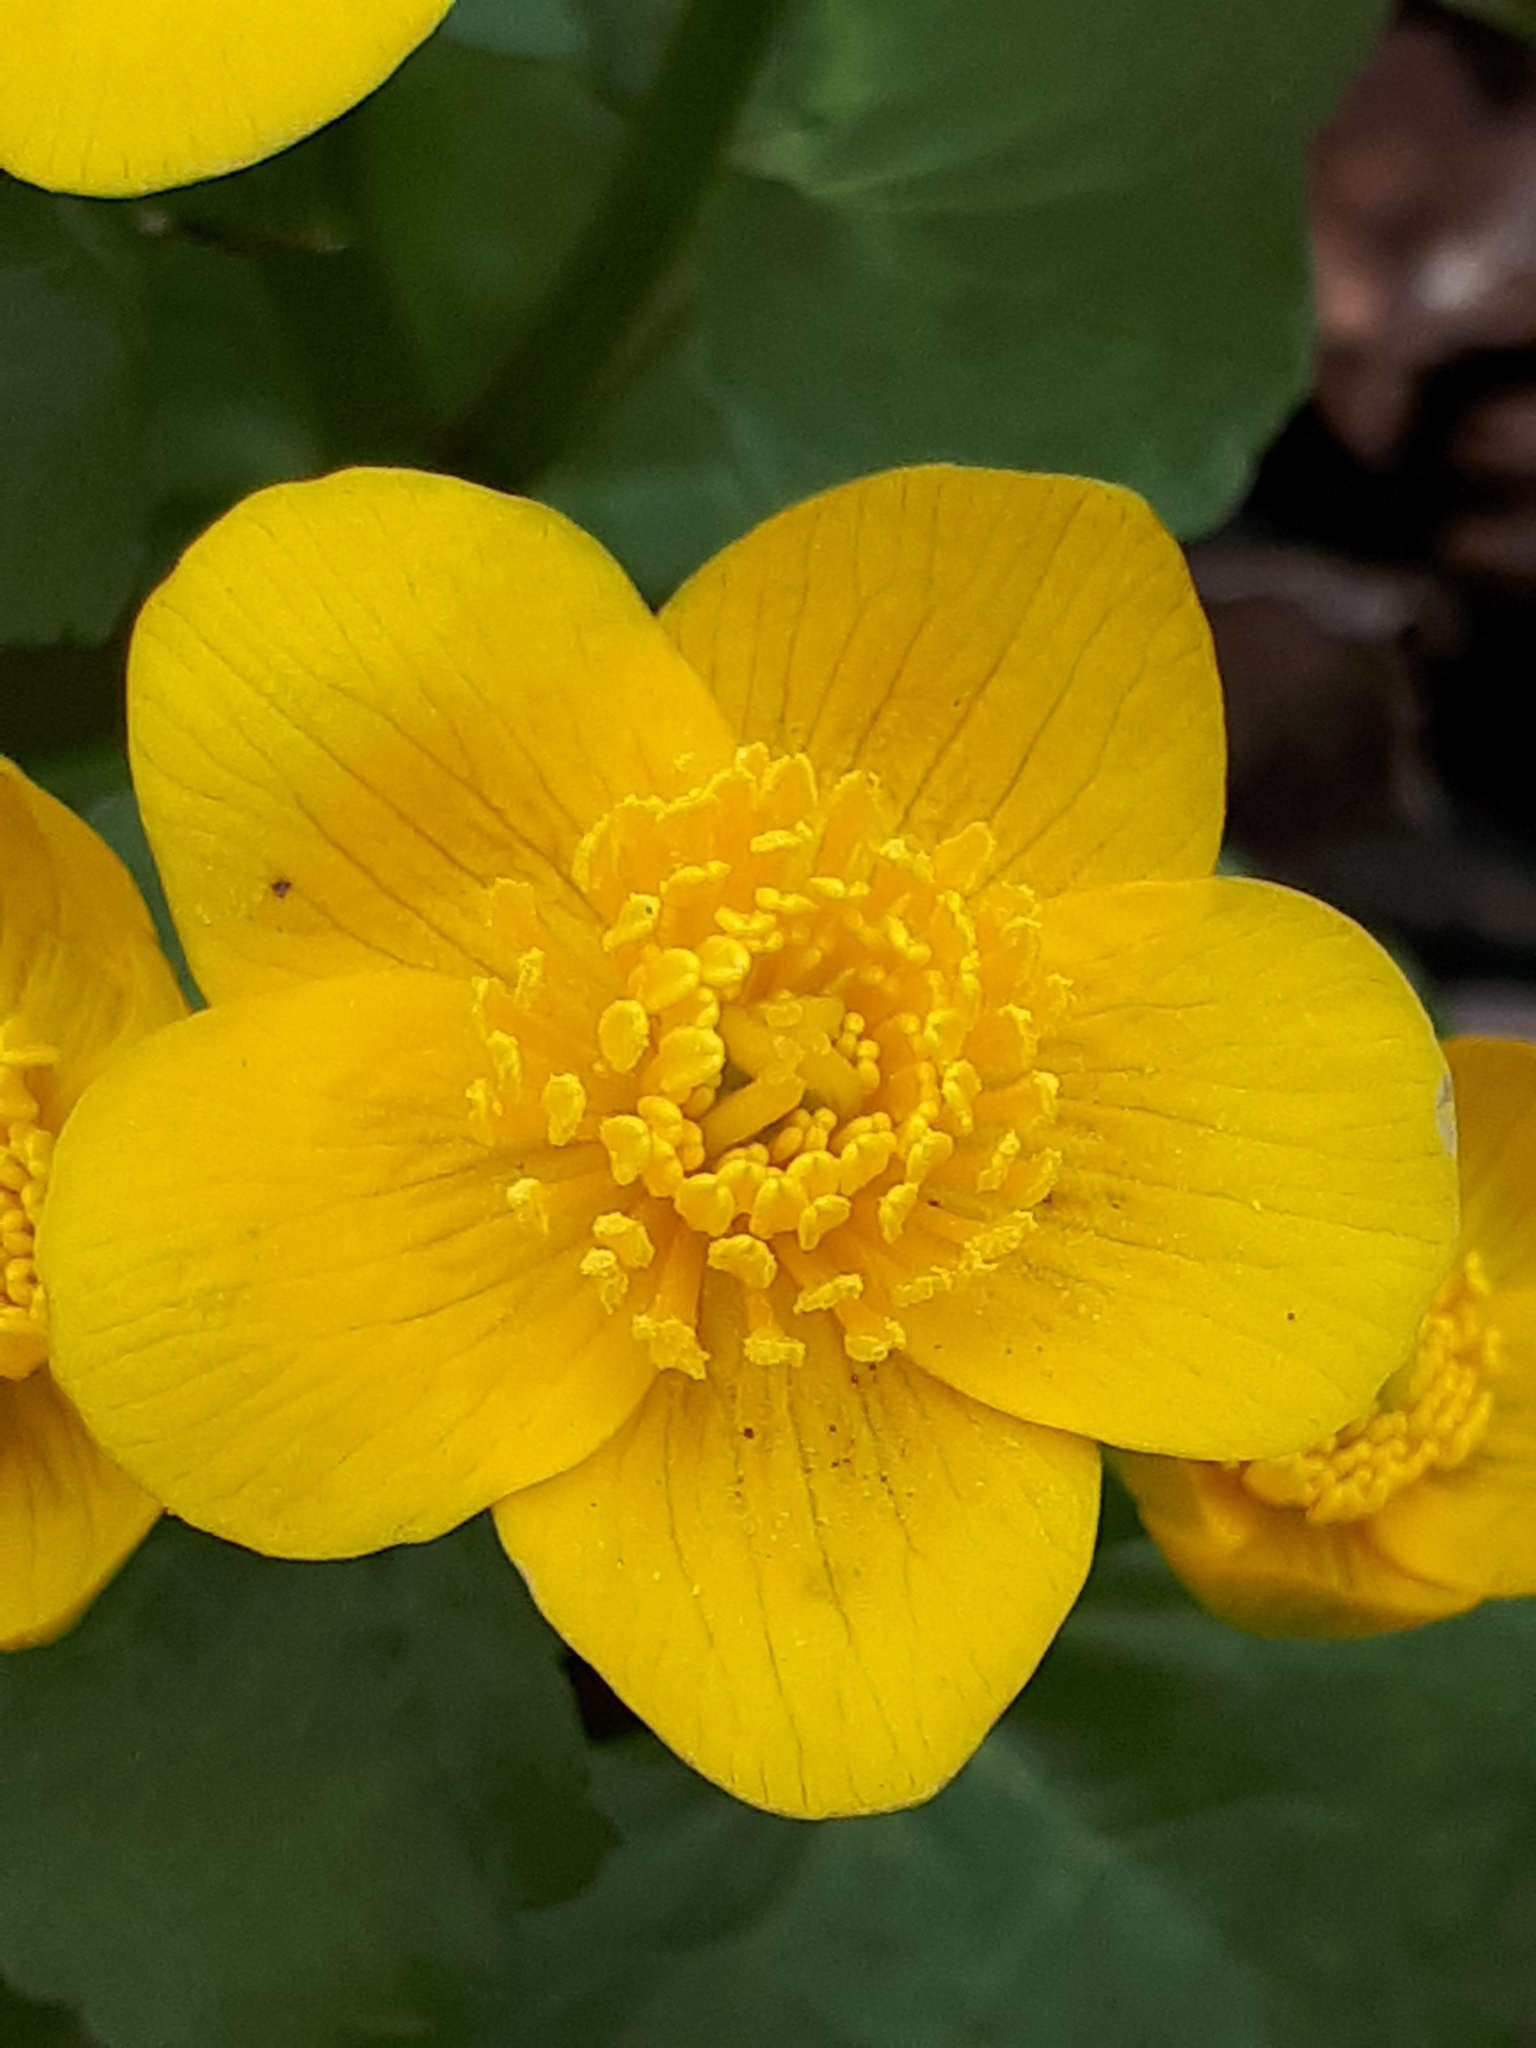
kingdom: Plantae
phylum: Tracheophyta
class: Magnoliopsida
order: Ranunculales
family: Ranunculaceae
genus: Caltha
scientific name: Caltha palustris
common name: Marsh marigold
